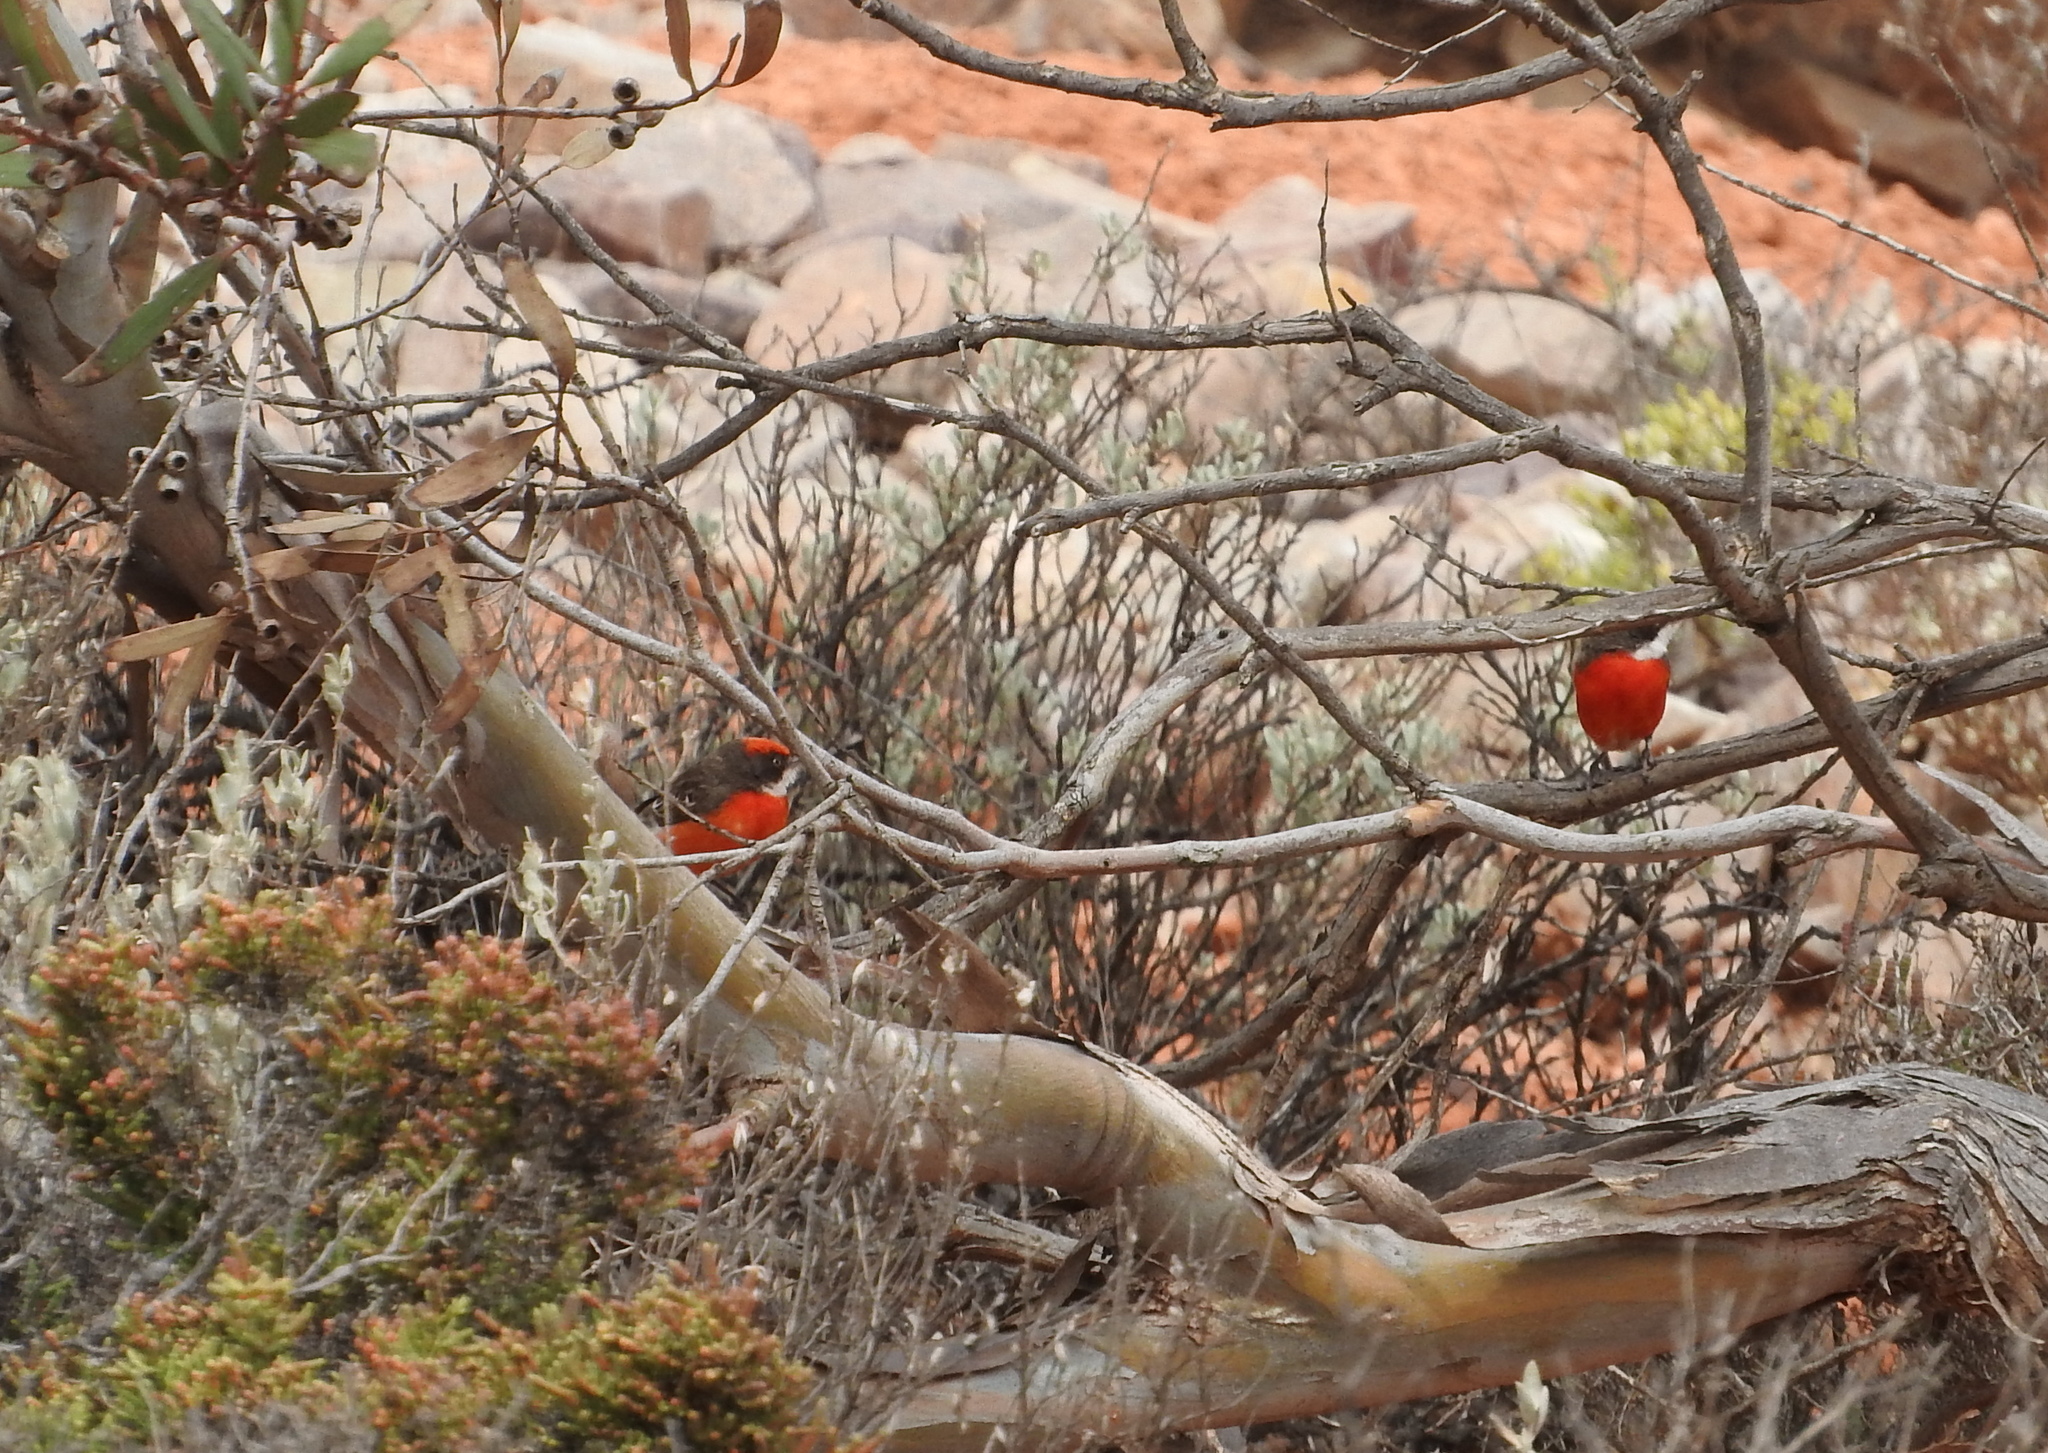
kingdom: Animalia
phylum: Chordata
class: Aves
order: Passeriformes
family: Meliphagidae
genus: Epthianura
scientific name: Epthianura tricolor
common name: Crimson chat
